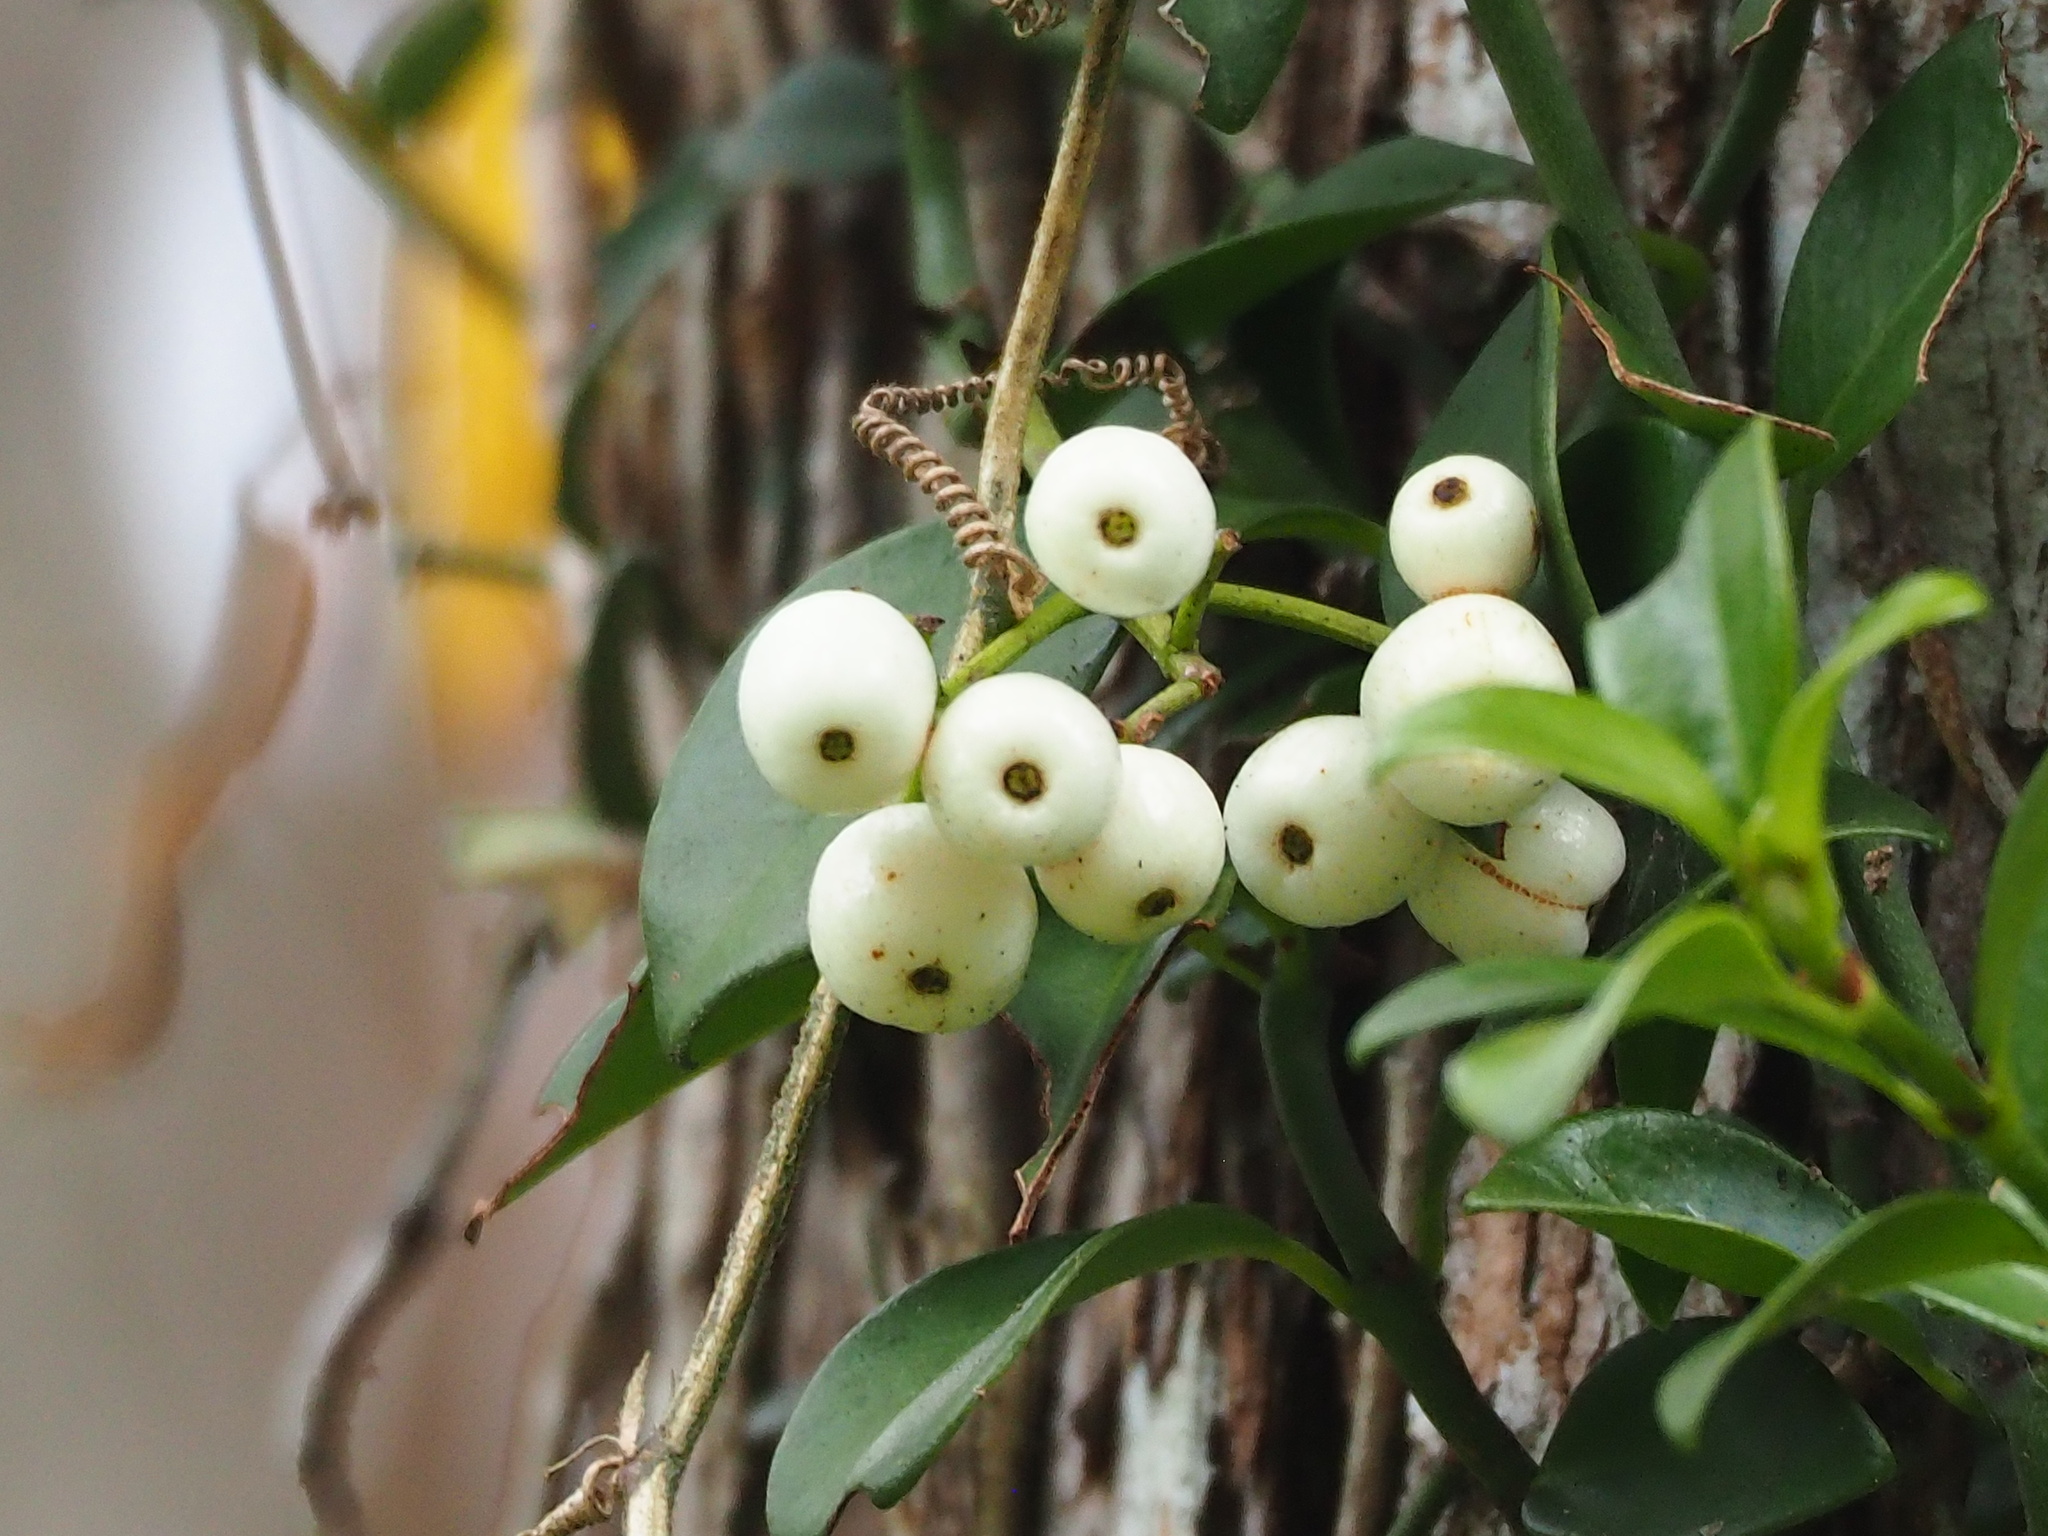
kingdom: Plantae
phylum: Tracheophyta
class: Magnoliopsida
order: Gentianales
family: Rubiaceae
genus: Psychotria
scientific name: Psychotria serpens
